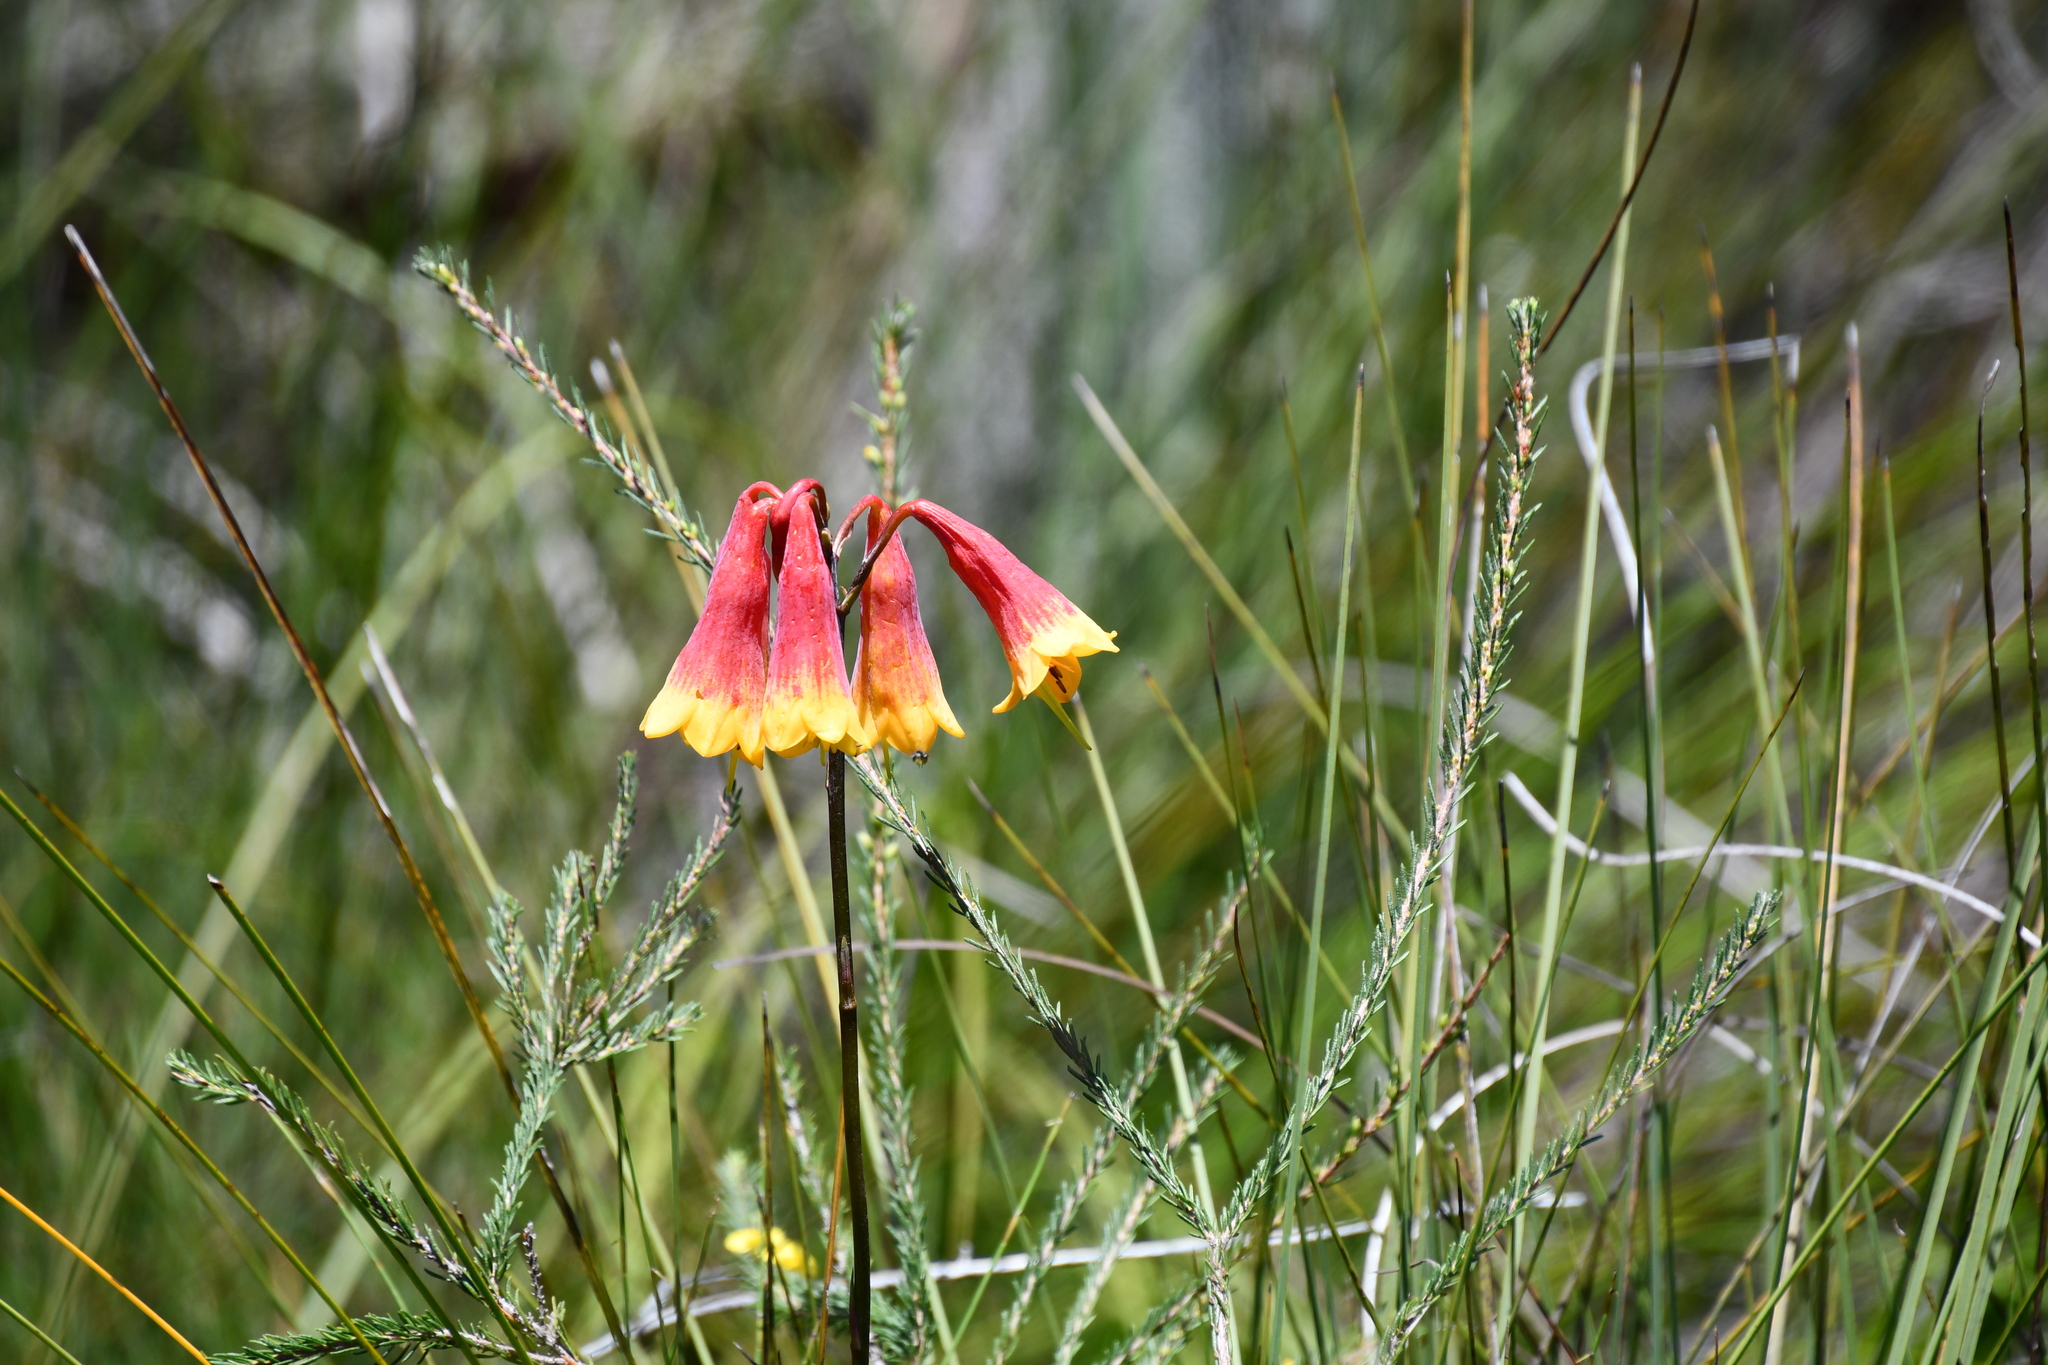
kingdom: Plantae
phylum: Tracheophyta
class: Liliopsida
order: Asparagales
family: Blandfordiaceae
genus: Blandfordia
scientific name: Blandfordia grandiflora
